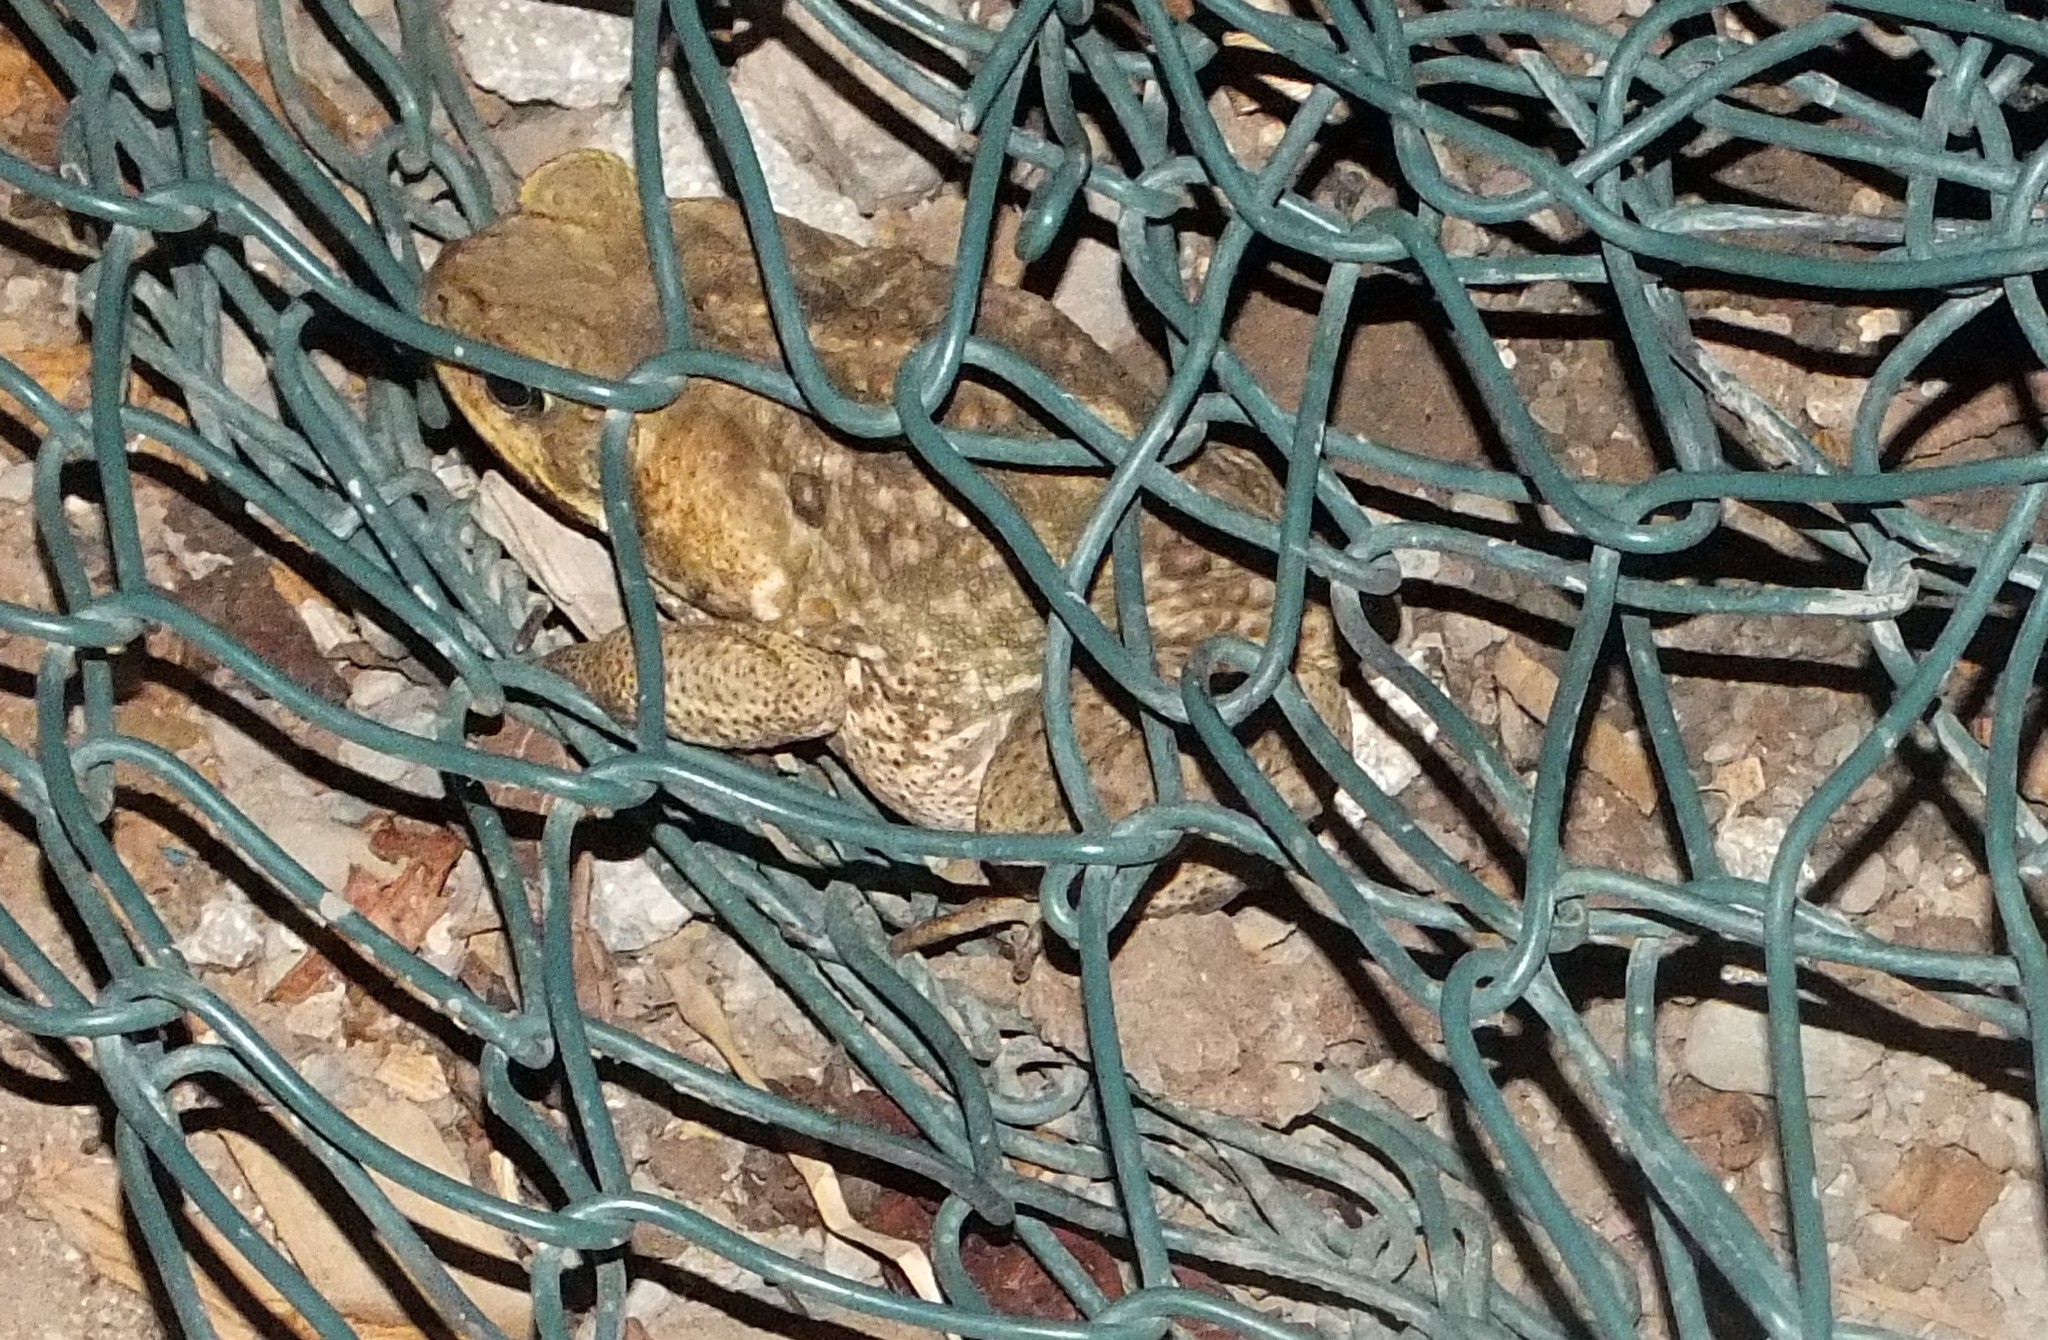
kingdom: Animalia
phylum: Chordata
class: Amphibia
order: Anura
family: Bufonidae
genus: Rhinella
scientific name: Rhinella marina
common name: Cane toad
